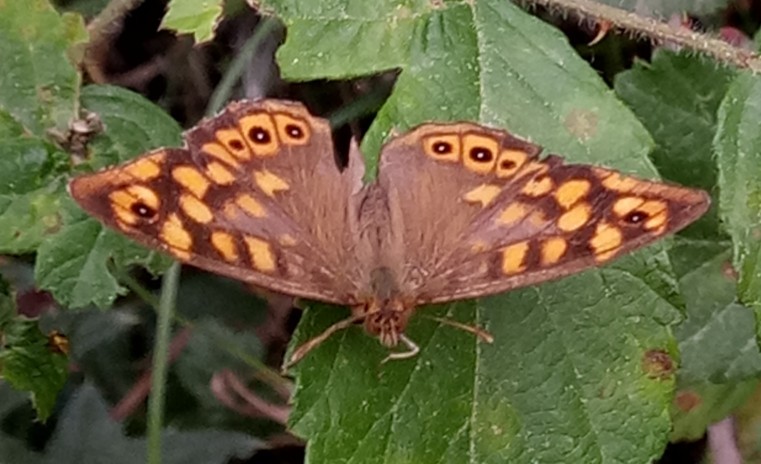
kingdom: Animalia
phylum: Arthropoda
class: Insecta
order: Lepidoptera
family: Nymphalidae
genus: Pararge
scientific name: Pararge aegeria
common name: Speckled wood
